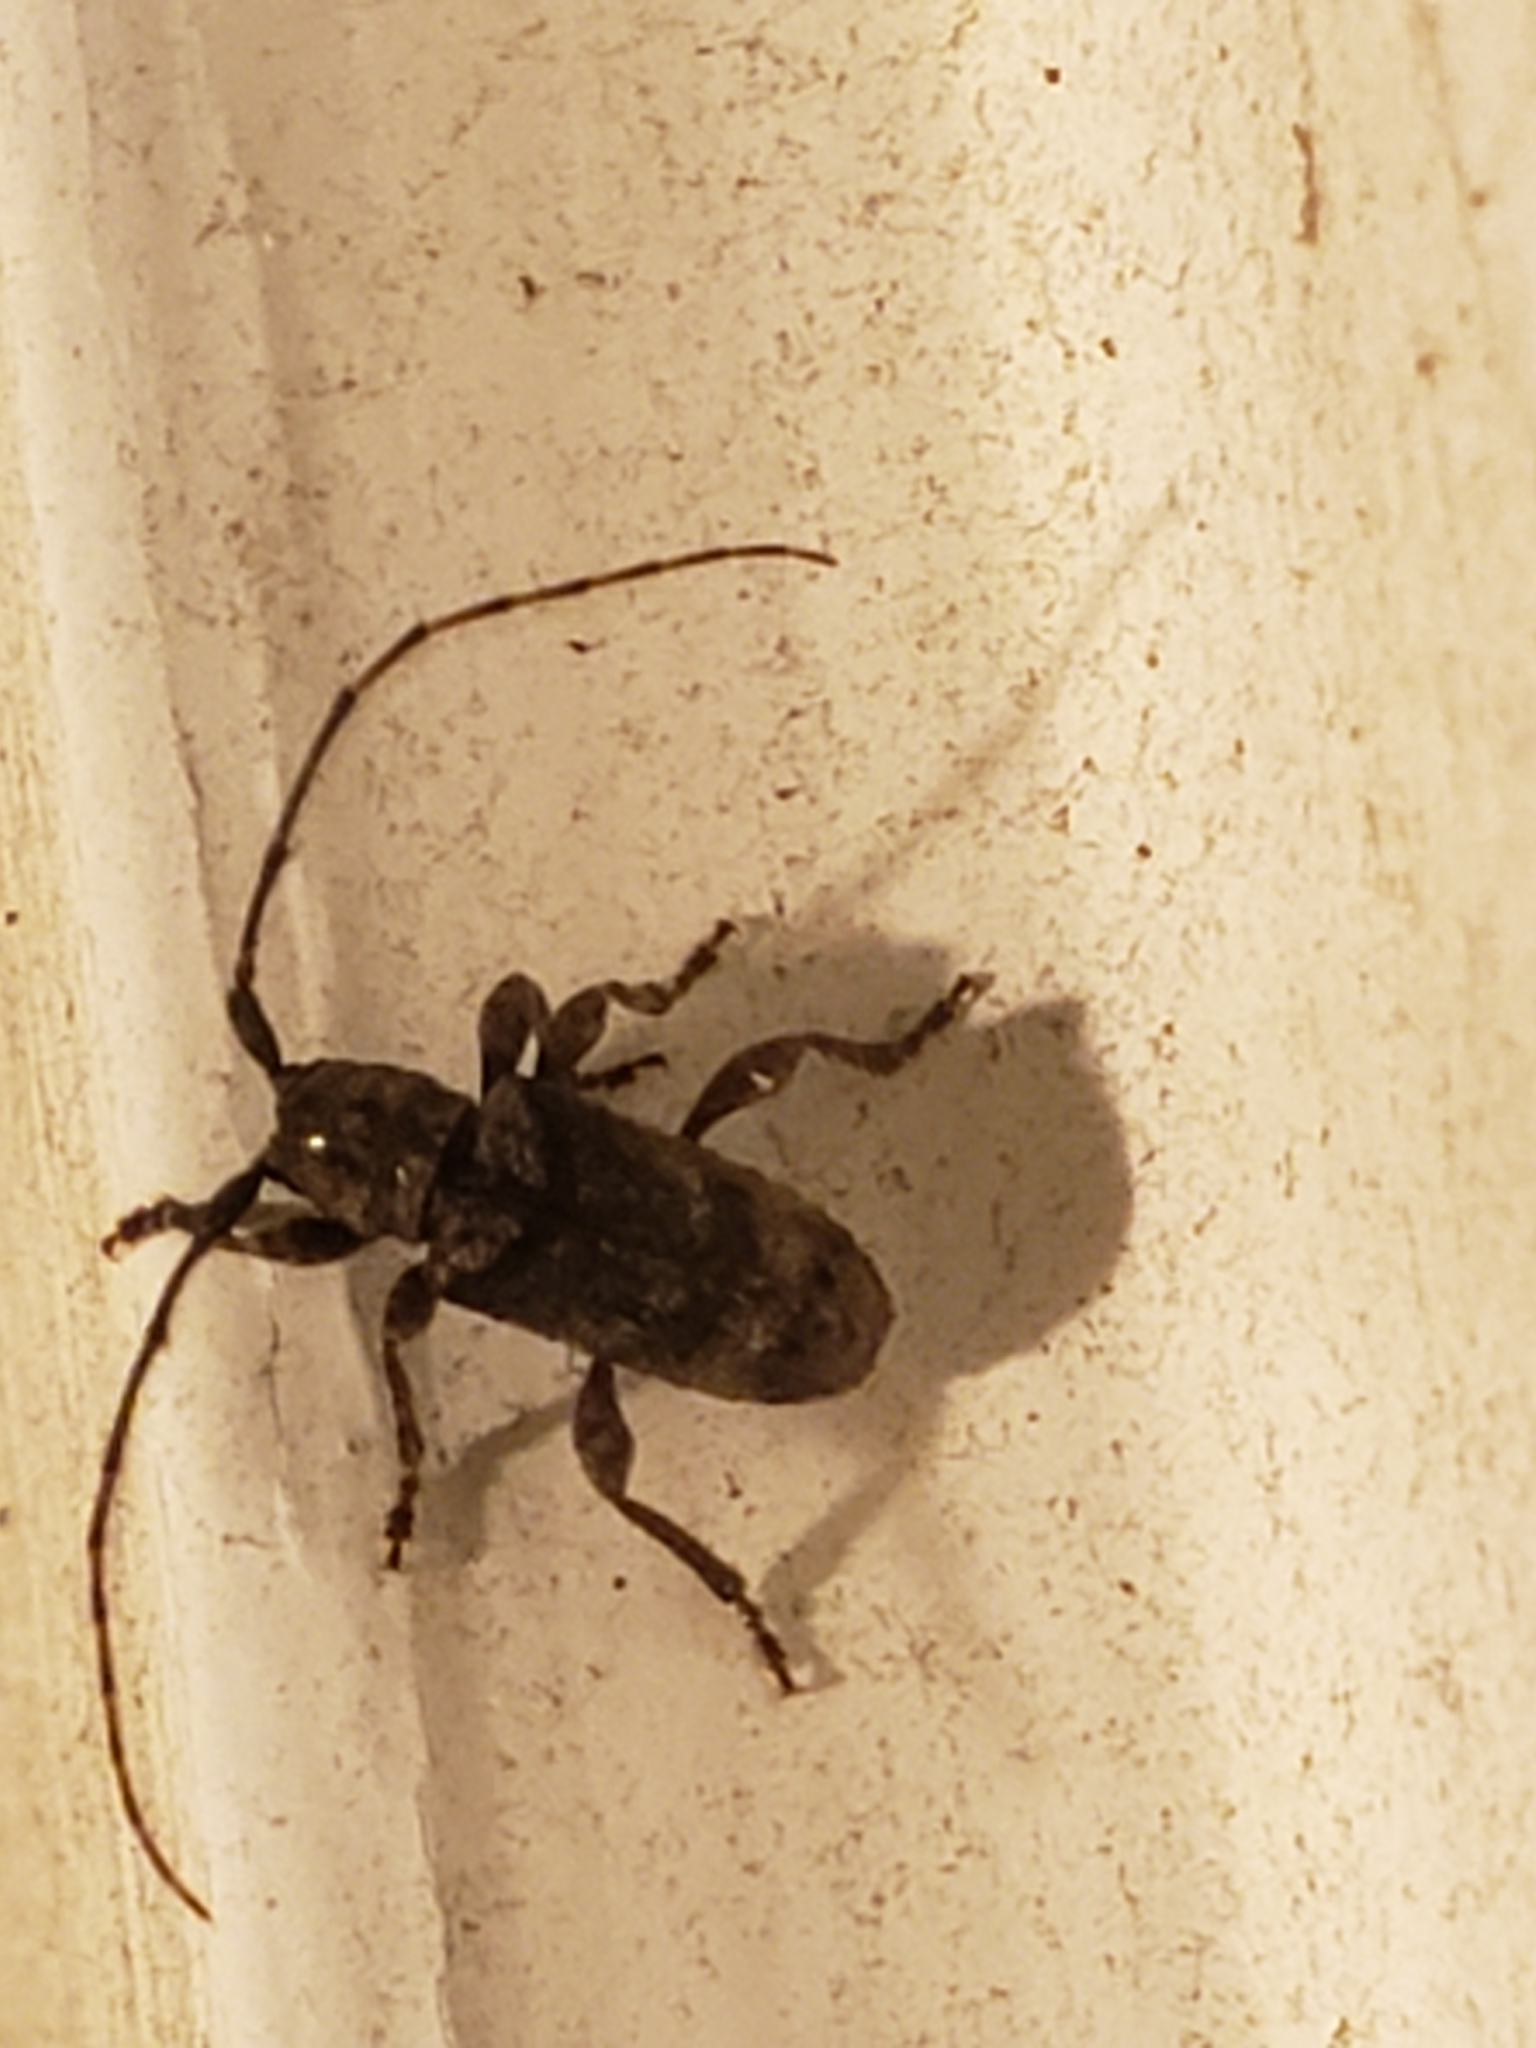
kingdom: Animalia
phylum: Arthropoda
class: Insecta
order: Coleoptera
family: Cerambycidae
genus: Ecyrus
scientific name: Ecyrus dasycerus
